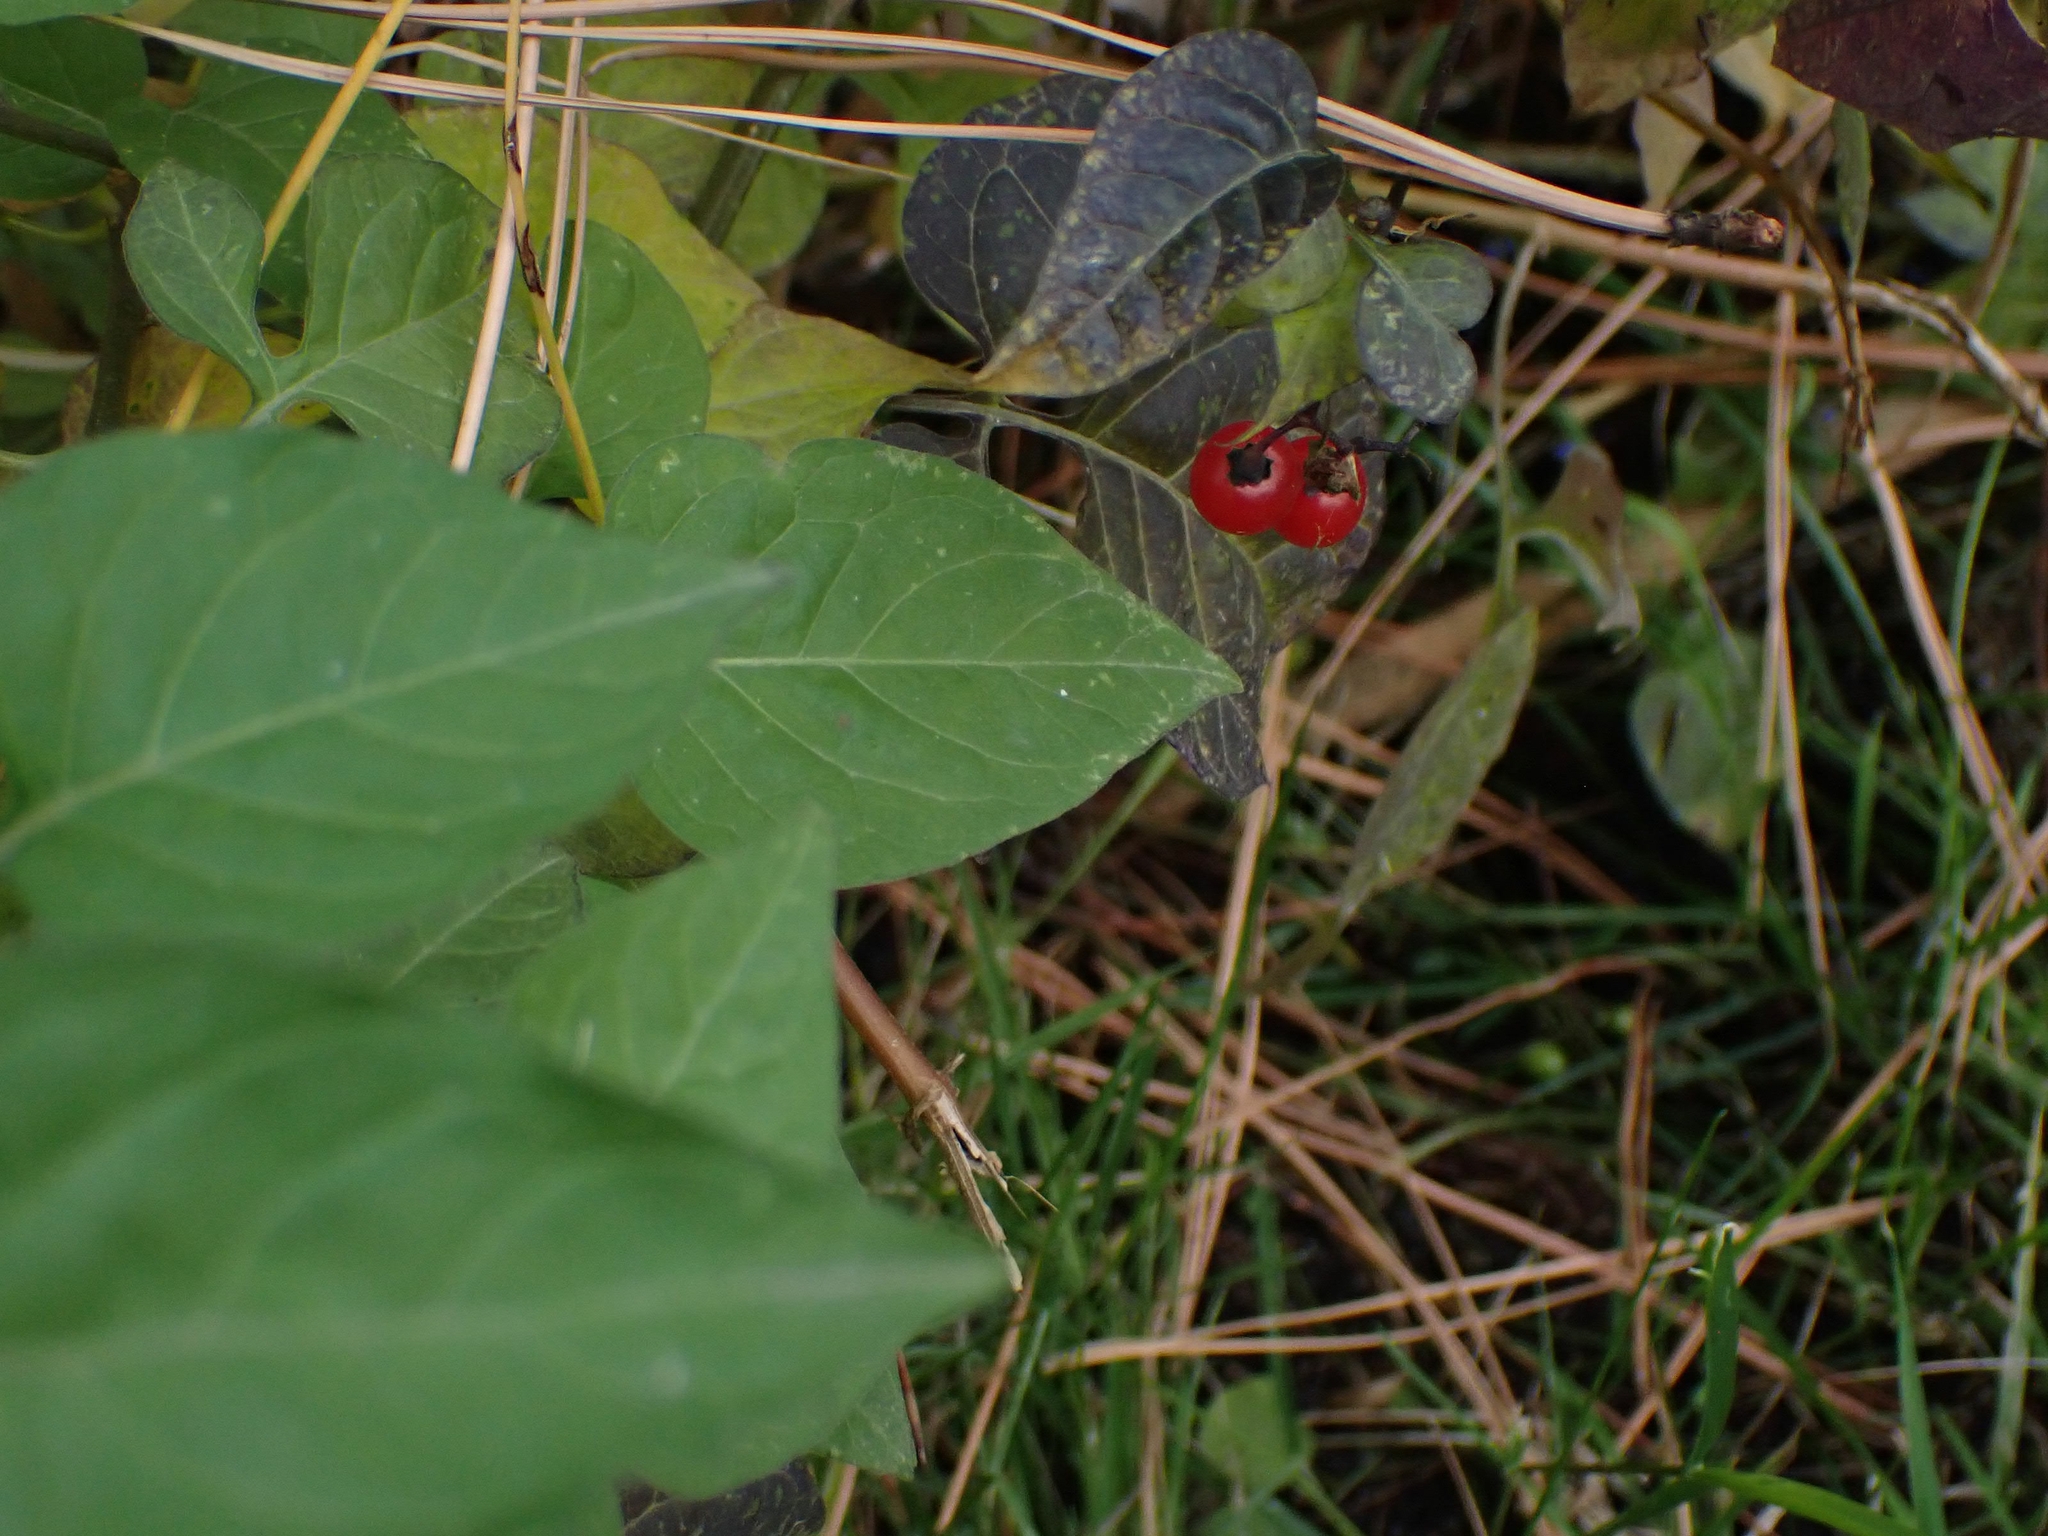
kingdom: Plantae
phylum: Tracheophyta
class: Magnoliopsida
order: Solanales
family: Solanaceae
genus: Solanum
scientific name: Solanum dulcamara
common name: Climbing nightshade
